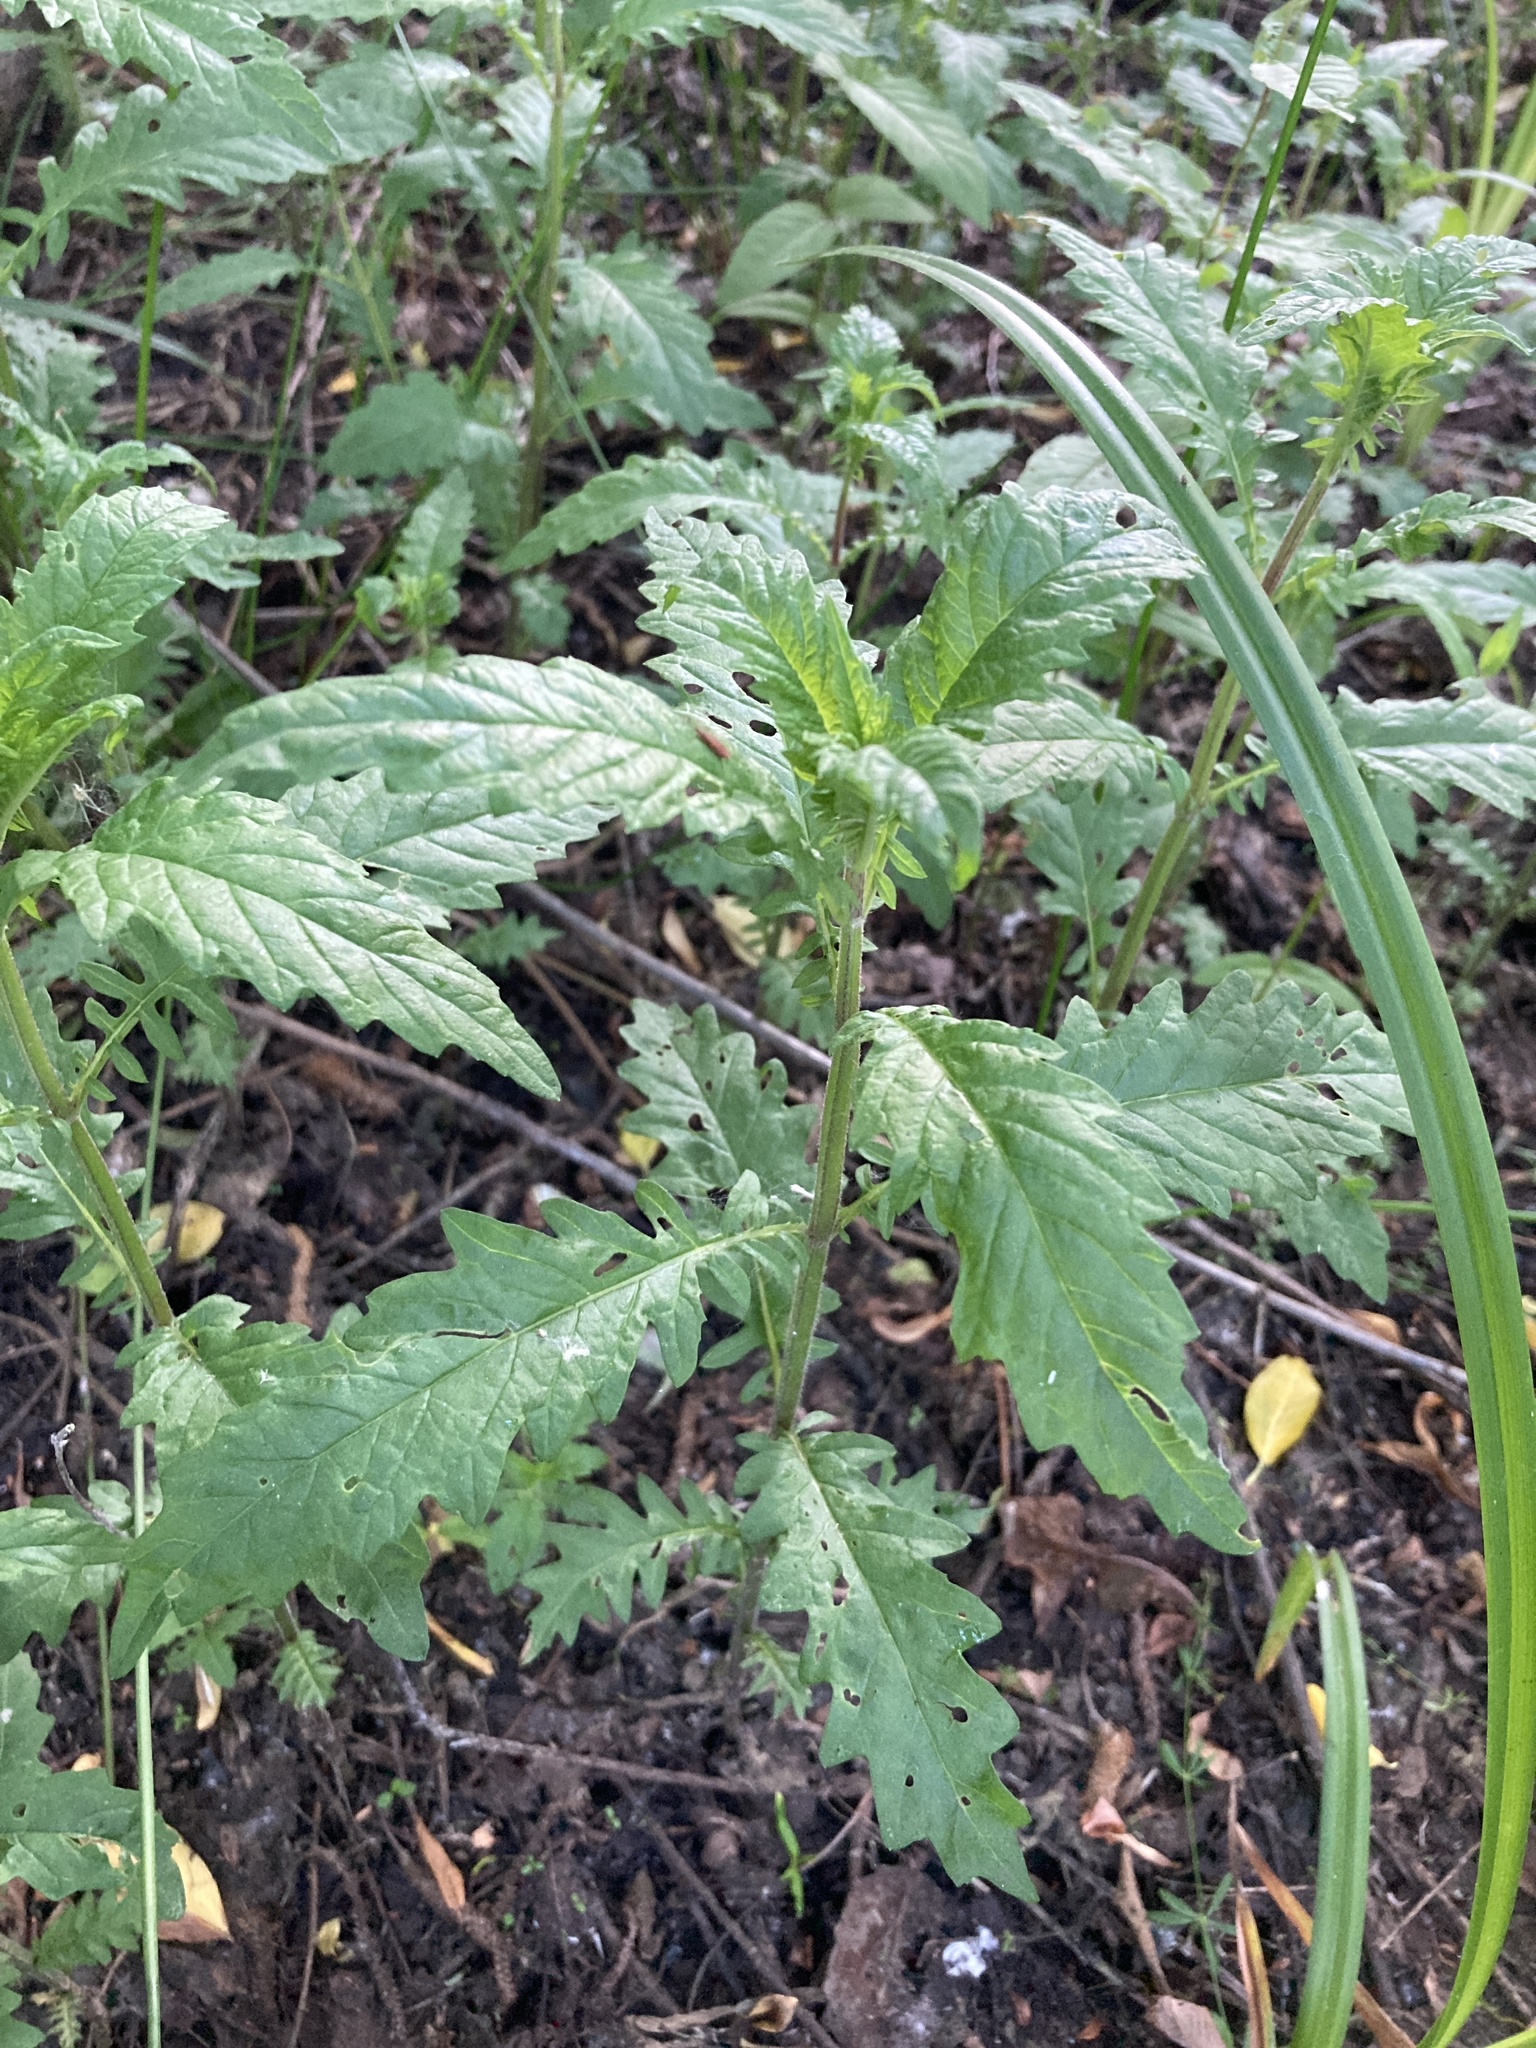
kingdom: Plantae
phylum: Tracheophyta
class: Magnoliopsida
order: Lamiales
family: Lamiaceae
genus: Lycopus
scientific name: Lycopus europaeus
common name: European bugleweed
